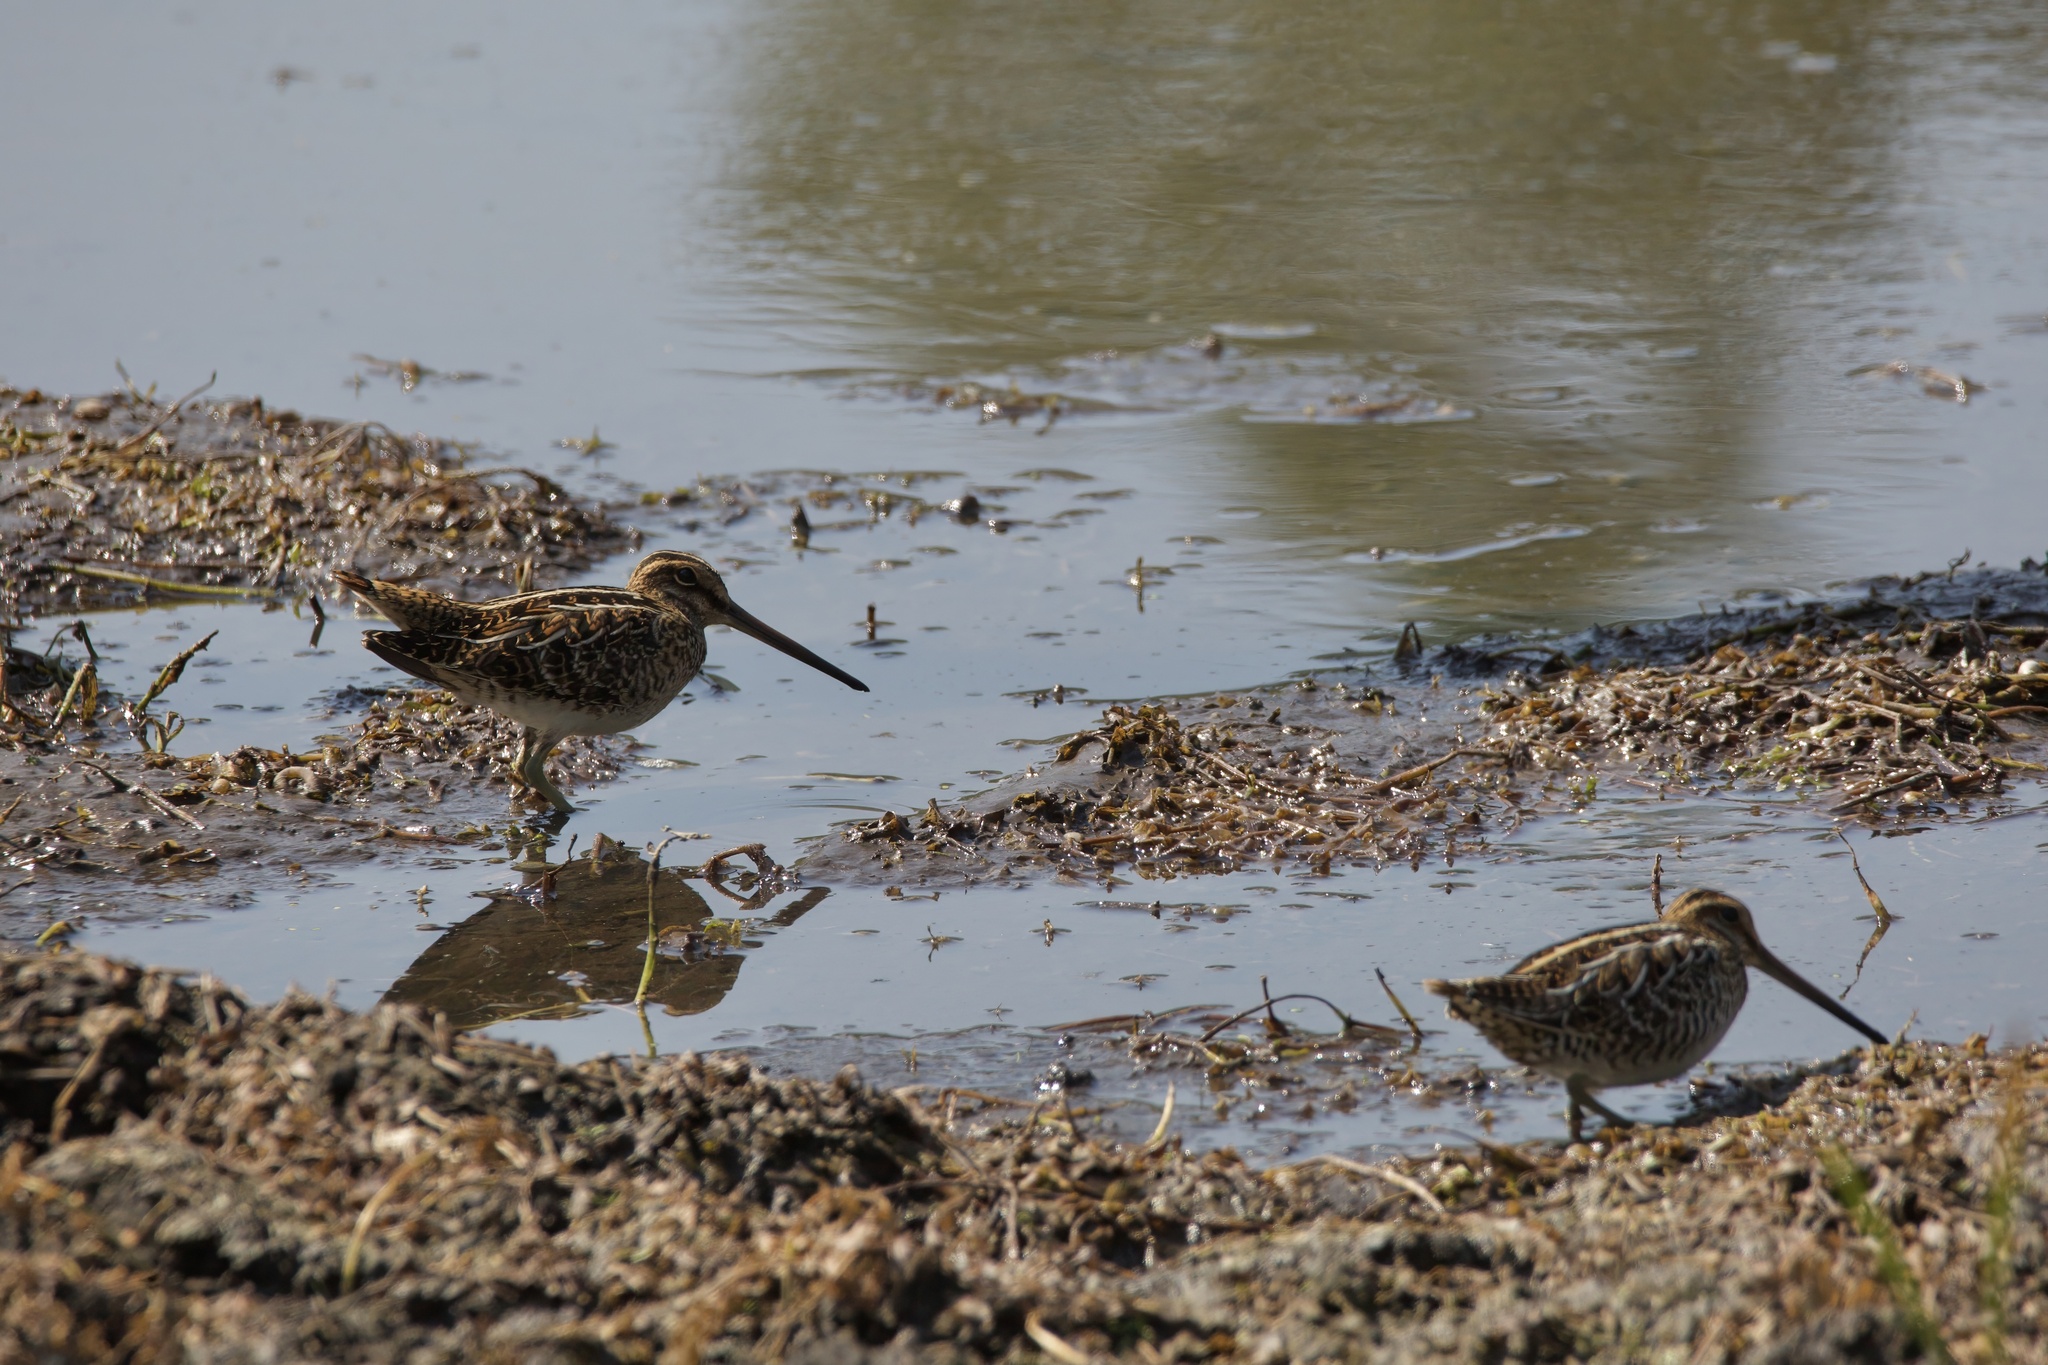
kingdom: Animalia
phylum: Chordata
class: Aves
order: Charadriiformes
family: Scolopacidae
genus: Gallinago
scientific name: Gallinago delicata
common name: Wilson's snipe
